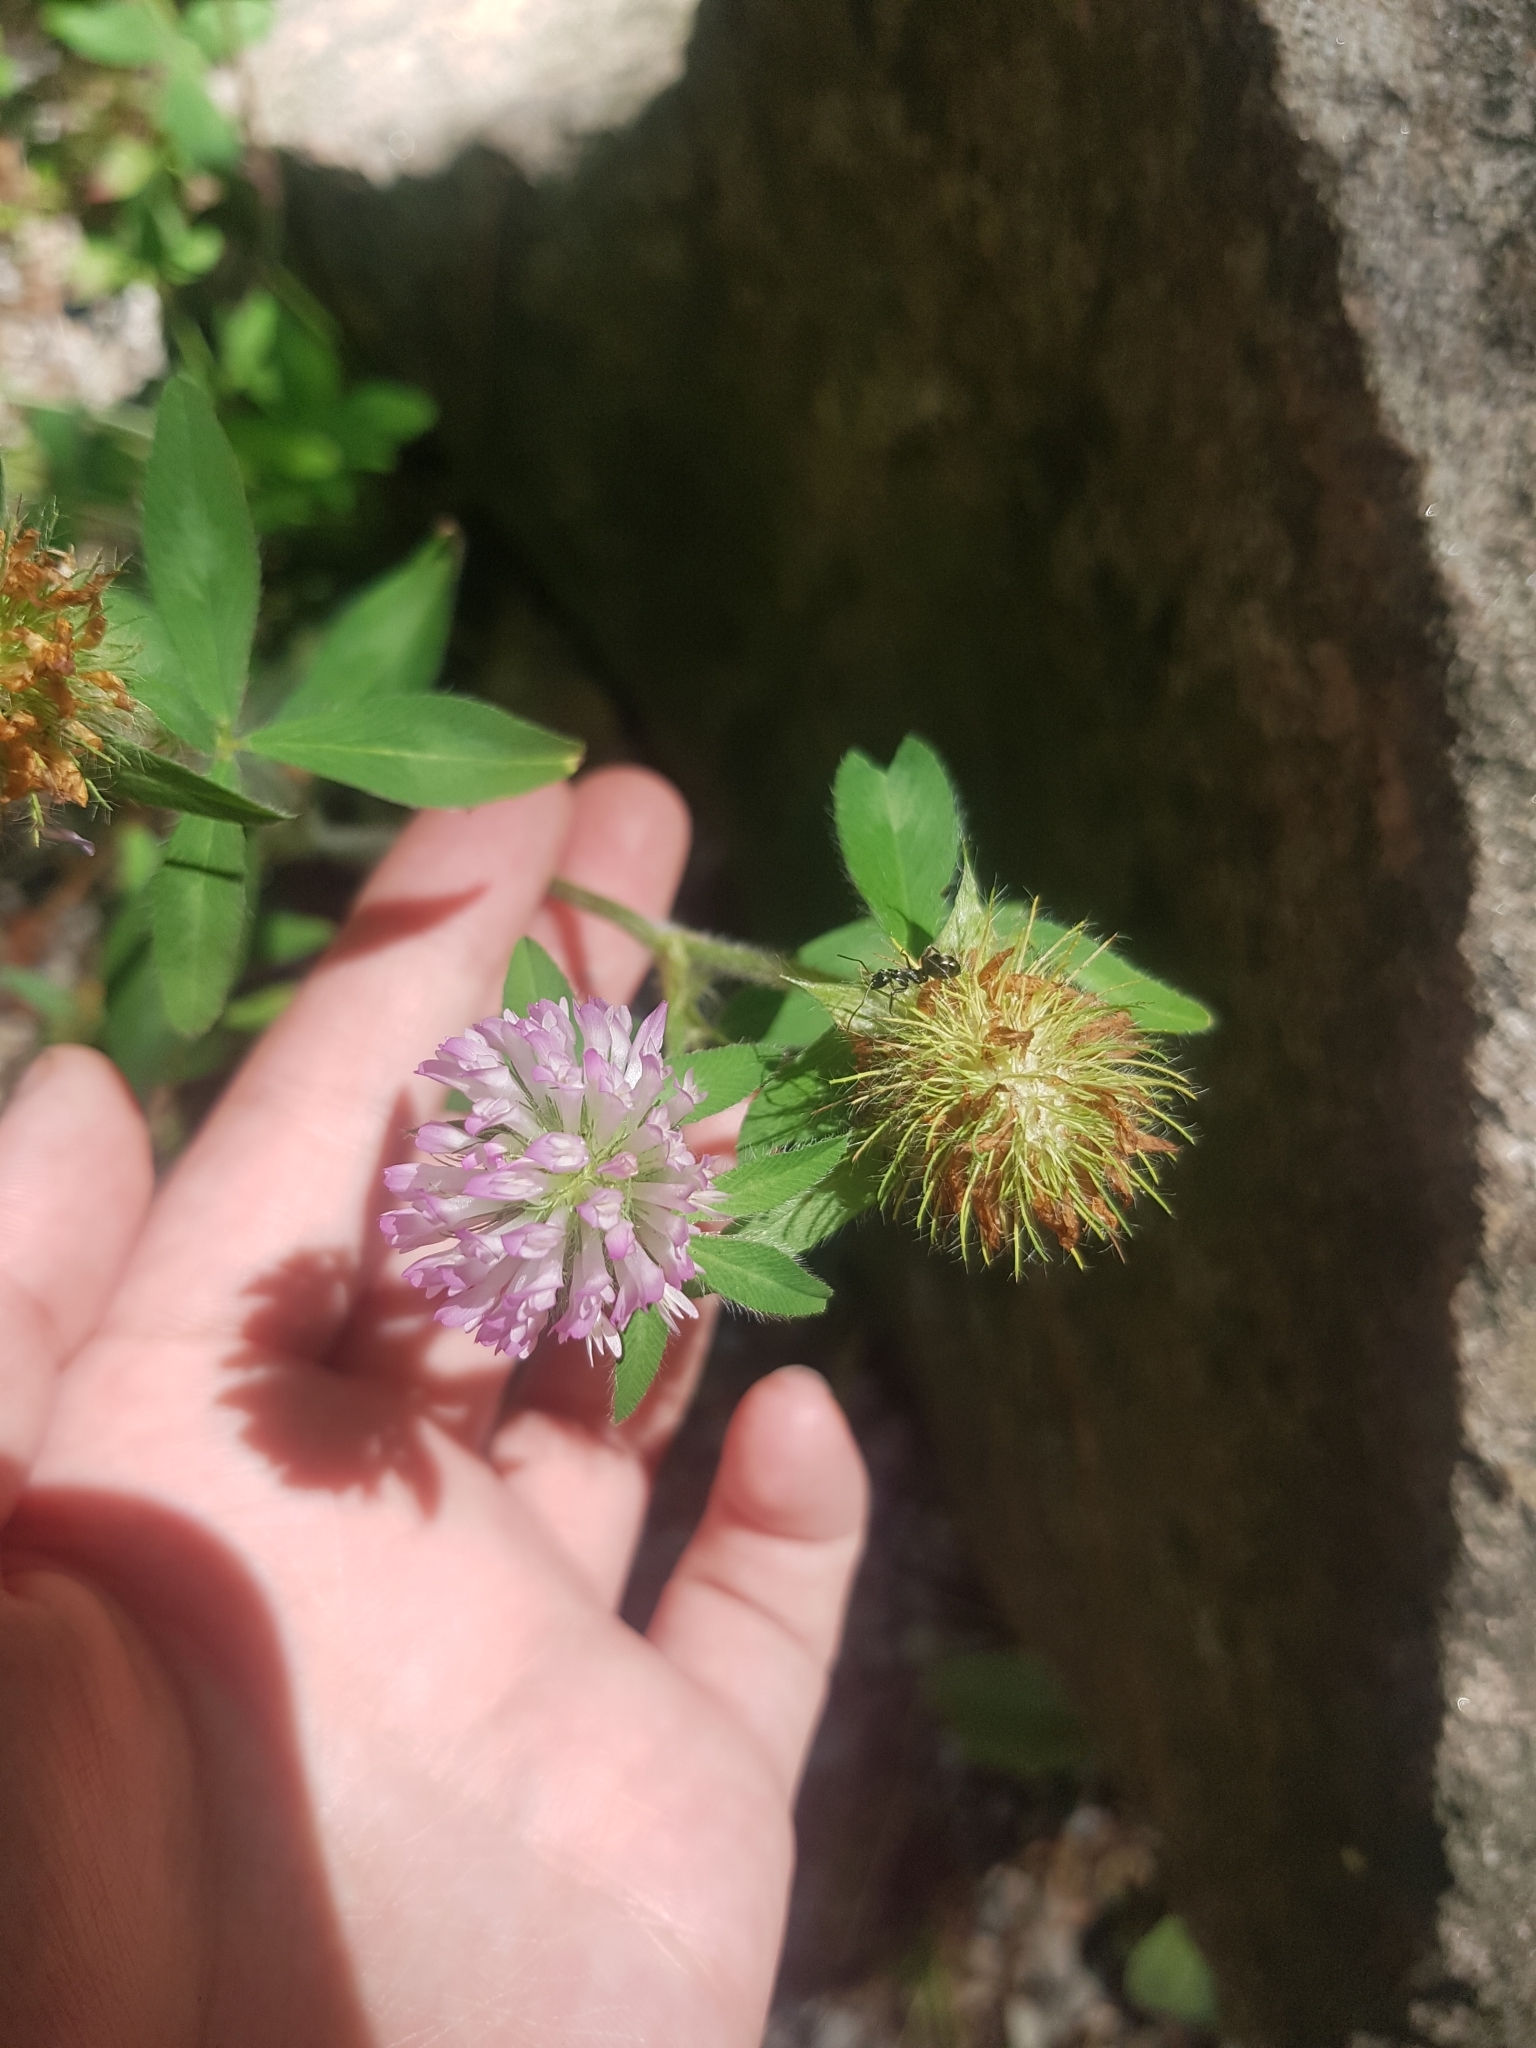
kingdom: Plantae
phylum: Tracheophyta
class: Magnoliopsida
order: Fabales
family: Fabaceae
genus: Trifolium
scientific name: Trifolium pratense
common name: Red clover
